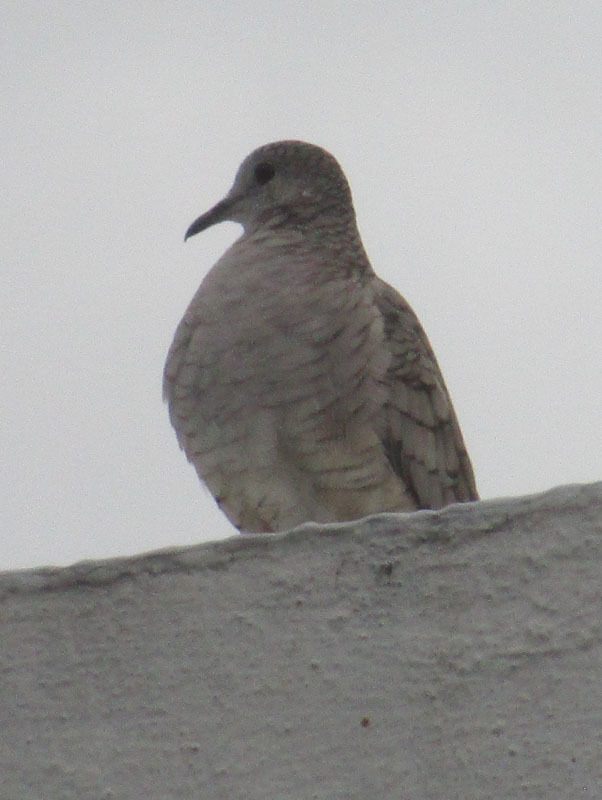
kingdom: Animalia
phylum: Chordata
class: Aves
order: Columbiformes
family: Columbidae
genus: Columbina
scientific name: Columbina inca
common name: Inca dove
